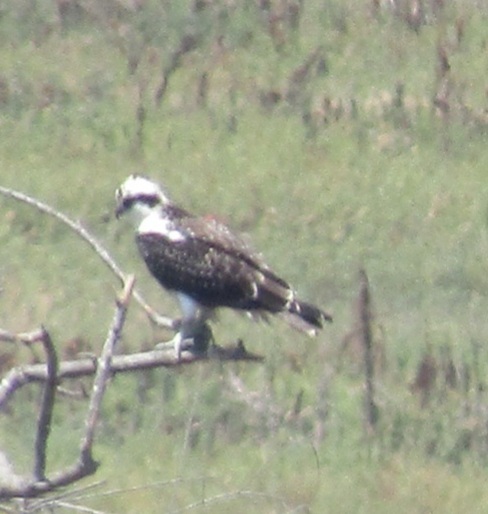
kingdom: Animalia
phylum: Chordata
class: Aves
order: Accipitriformes
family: Pandionidae
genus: Pandion
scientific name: Pandion haliaetus
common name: Osprey
